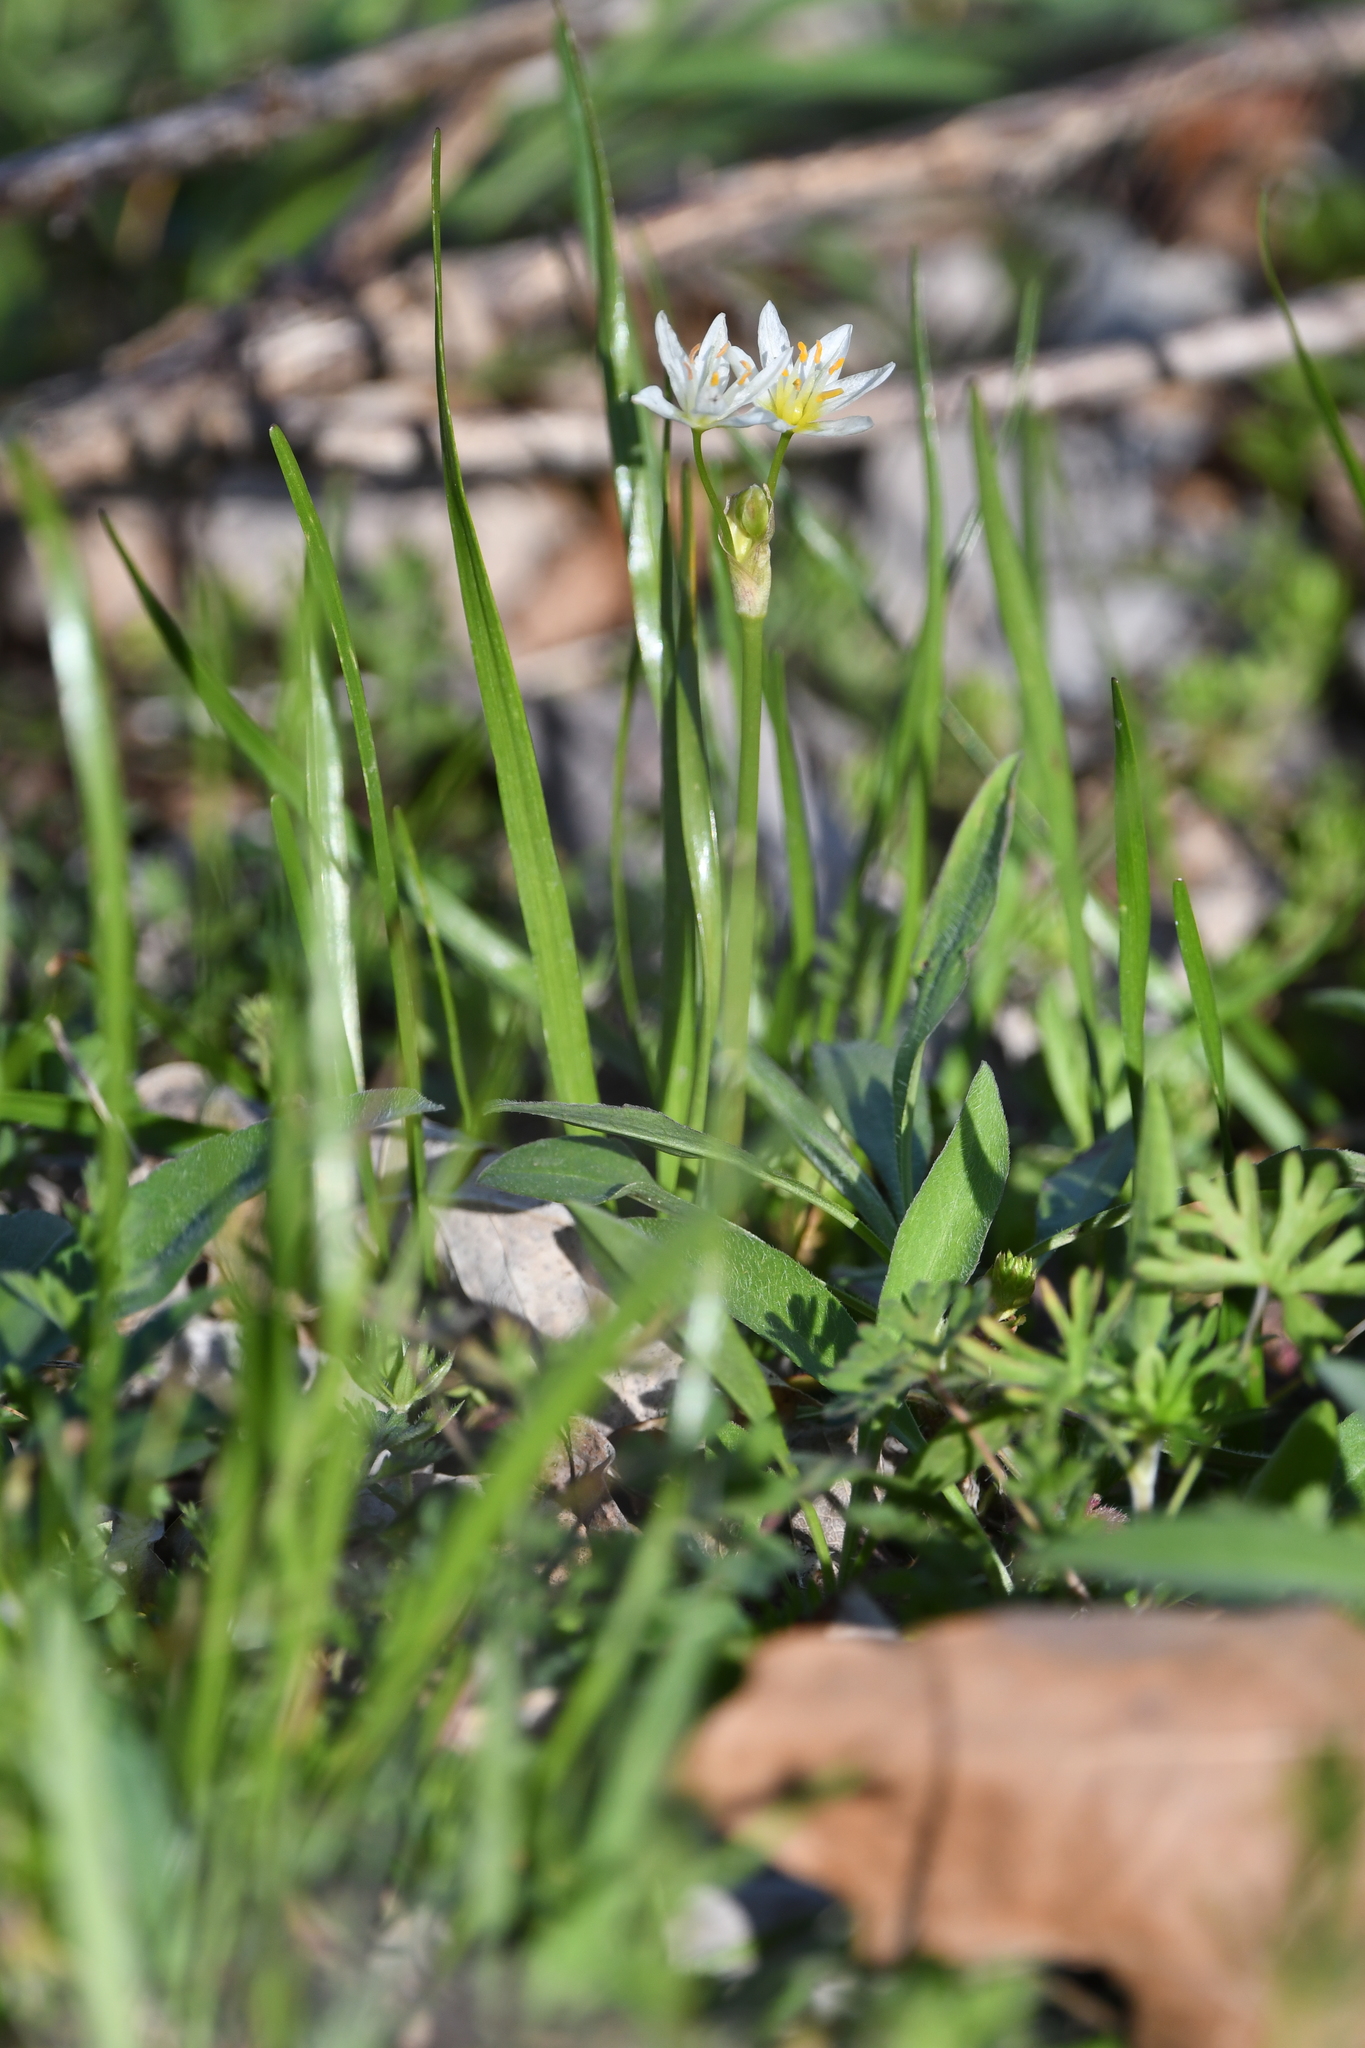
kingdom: Plantae
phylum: Tracheophyta
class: Liliopsida
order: Asparagales
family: Amaryllidaceae
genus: Nothoscordum
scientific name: Nothoscordum bivalve
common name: Crow-poison
